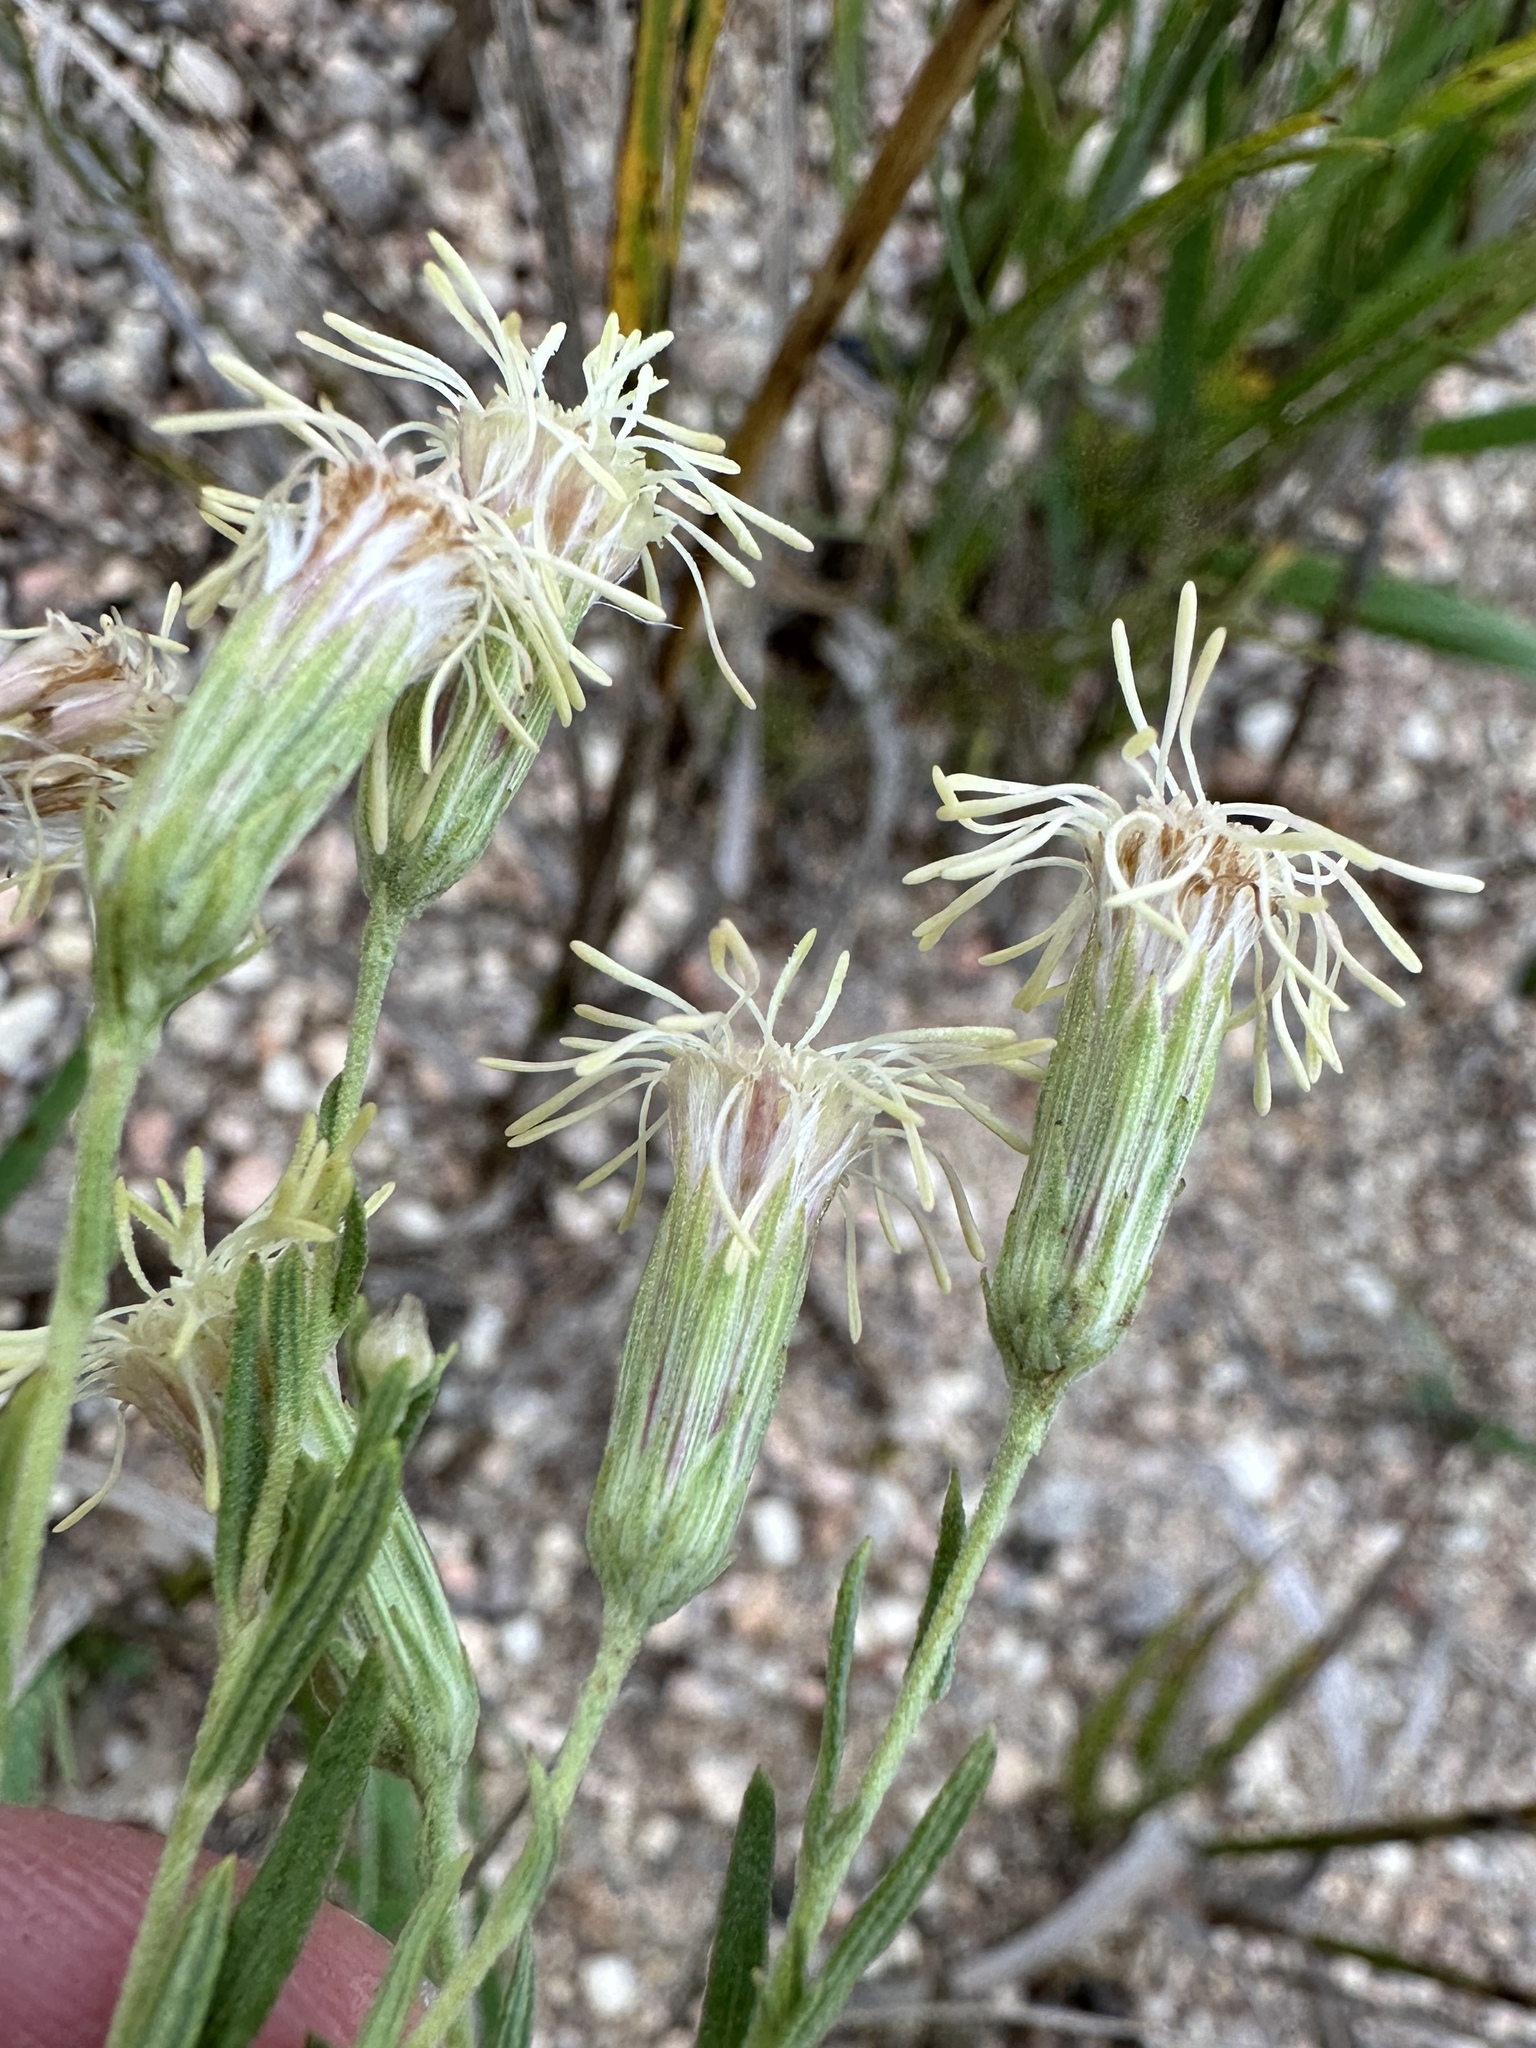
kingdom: Plantae
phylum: Tracheophyta
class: Magnoliopsida
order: Asterales
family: Asteraceae
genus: Brickellia
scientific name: Brickellia eupatorioides
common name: False boneset
